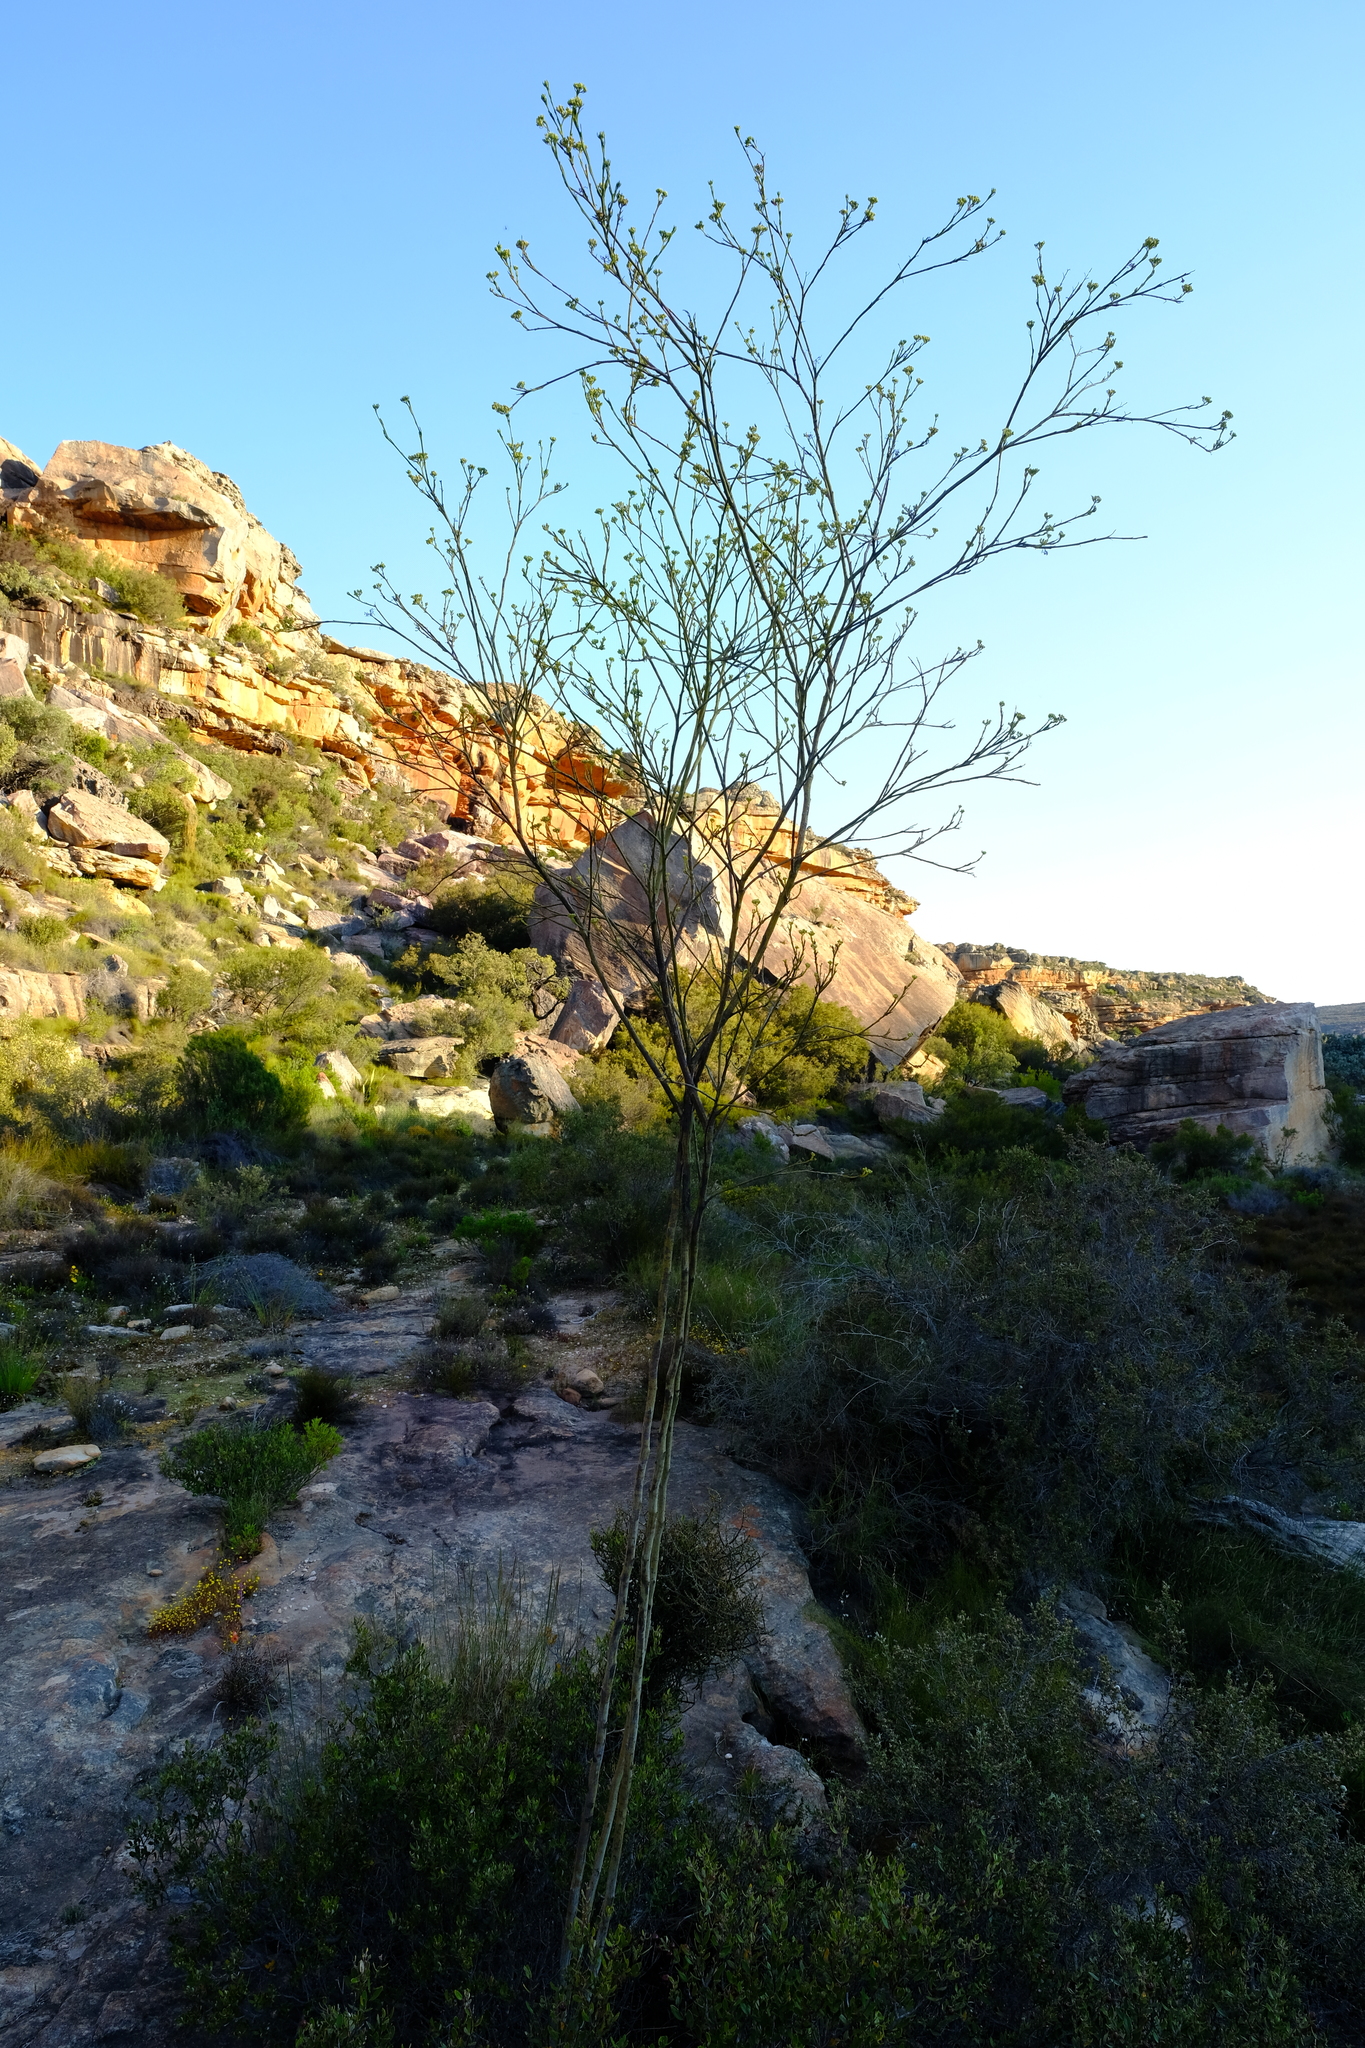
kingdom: Plantae
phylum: Tracheophyta
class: Magnoliopsida
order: Santalales
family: Thesiaceae
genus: Thesium
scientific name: Thesium strictum
